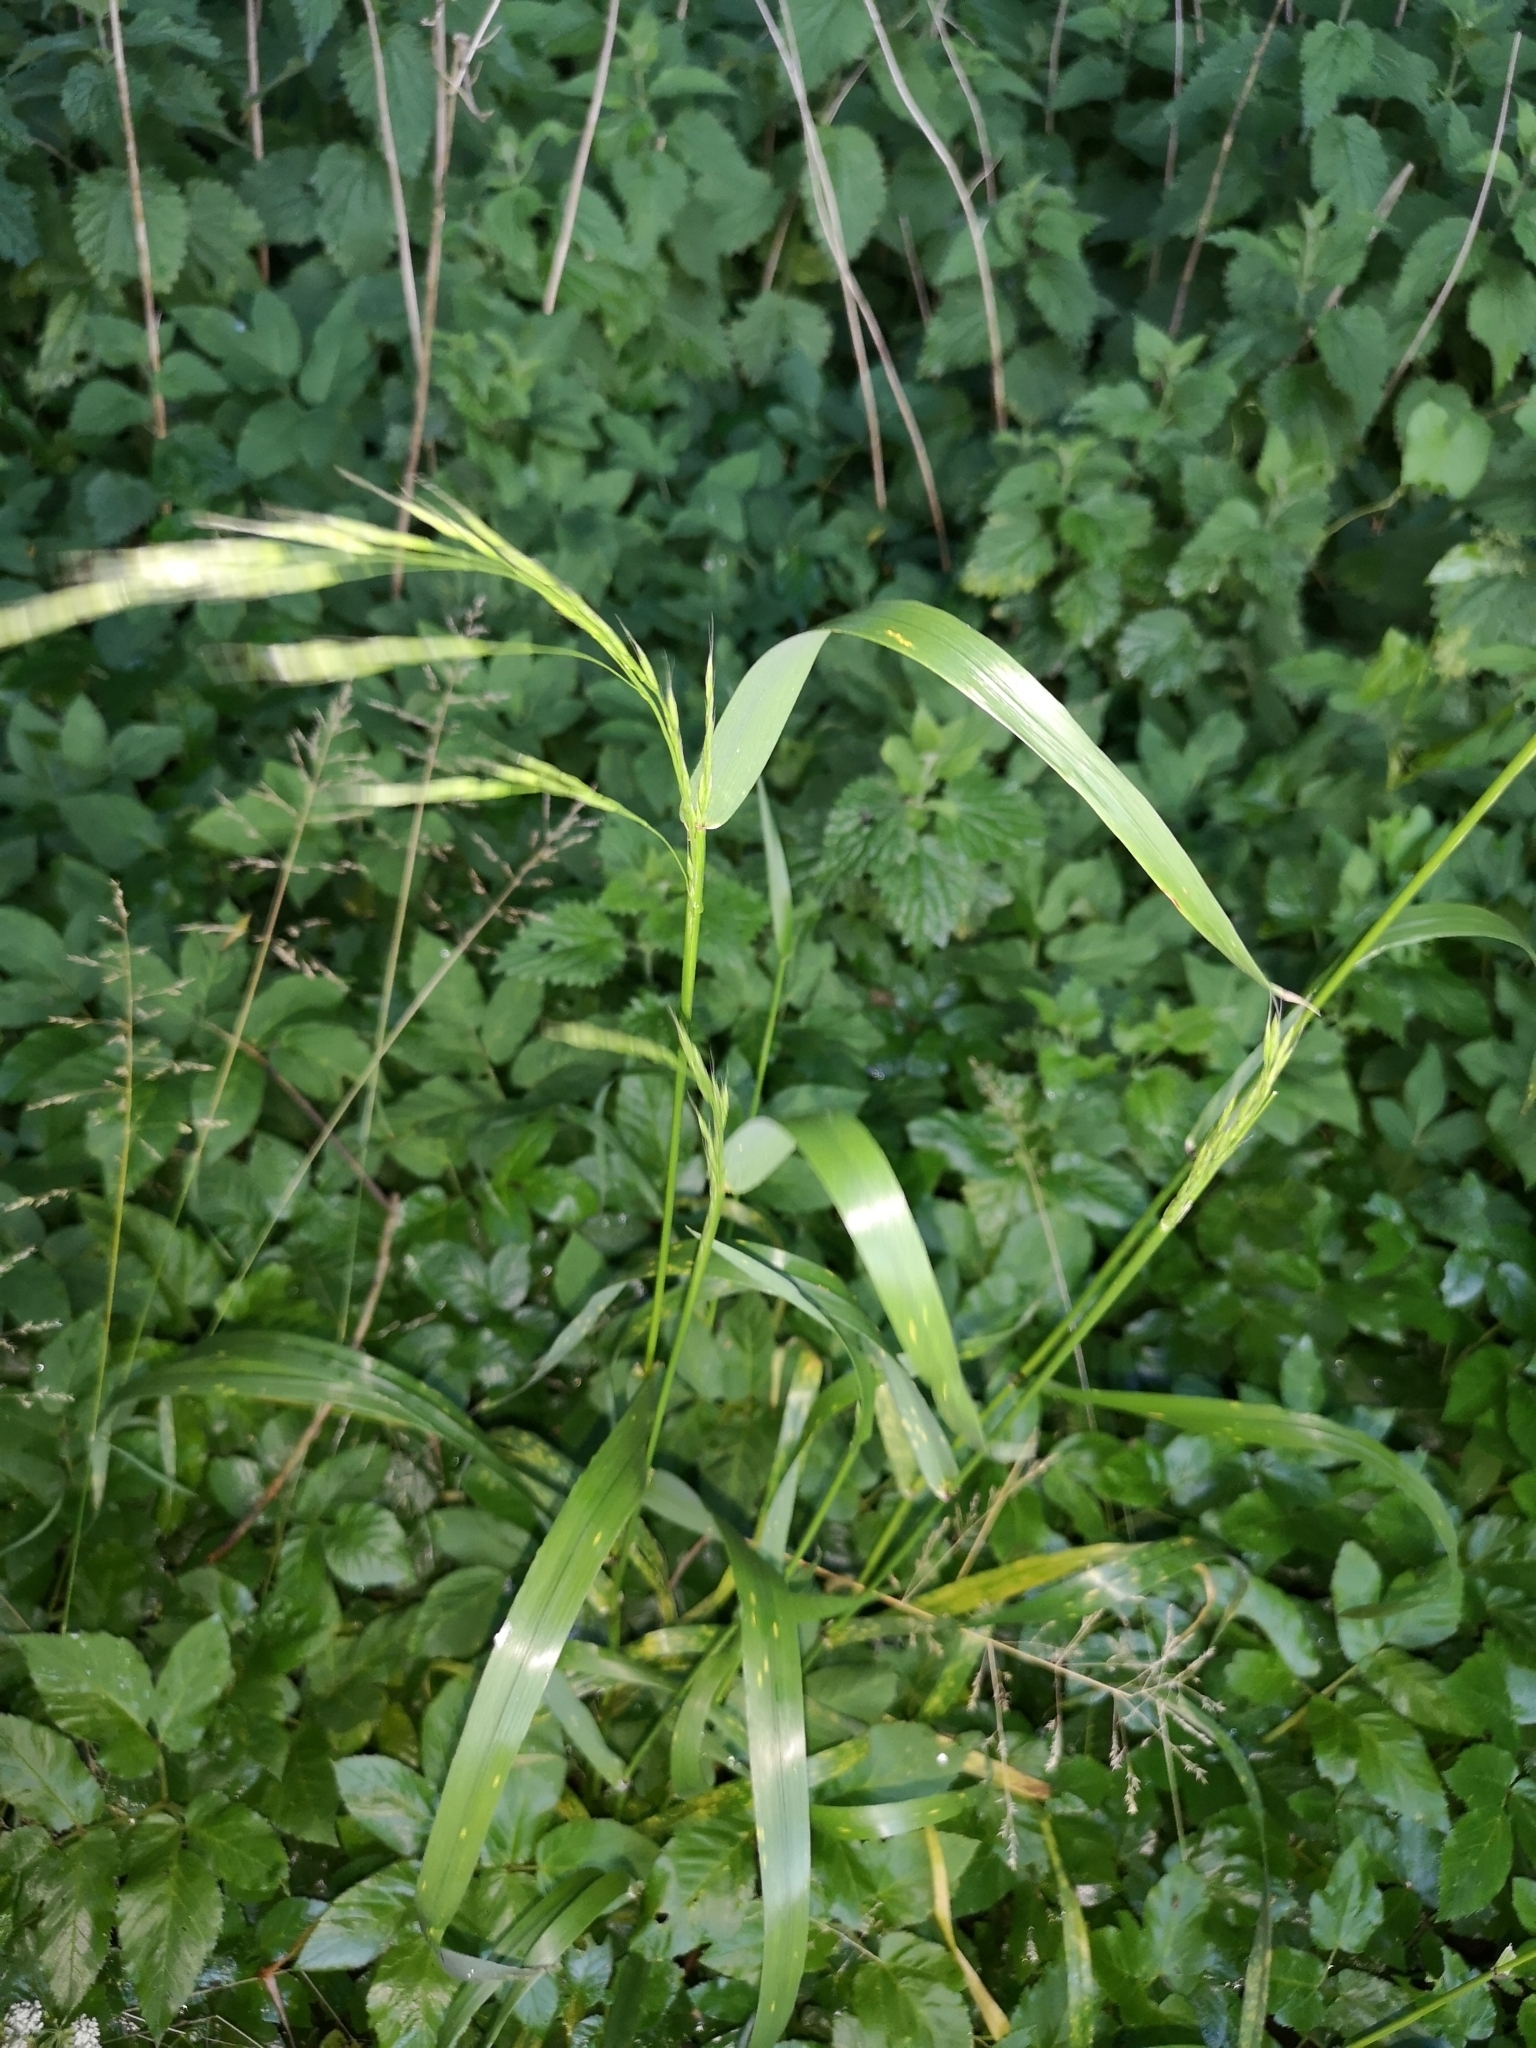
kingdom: Plantae
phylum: Tracheophyta
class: Liliopsida
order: Poales
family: Poaceae
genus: Lolium
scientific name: Lolium giganteum
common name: Giant fescue
